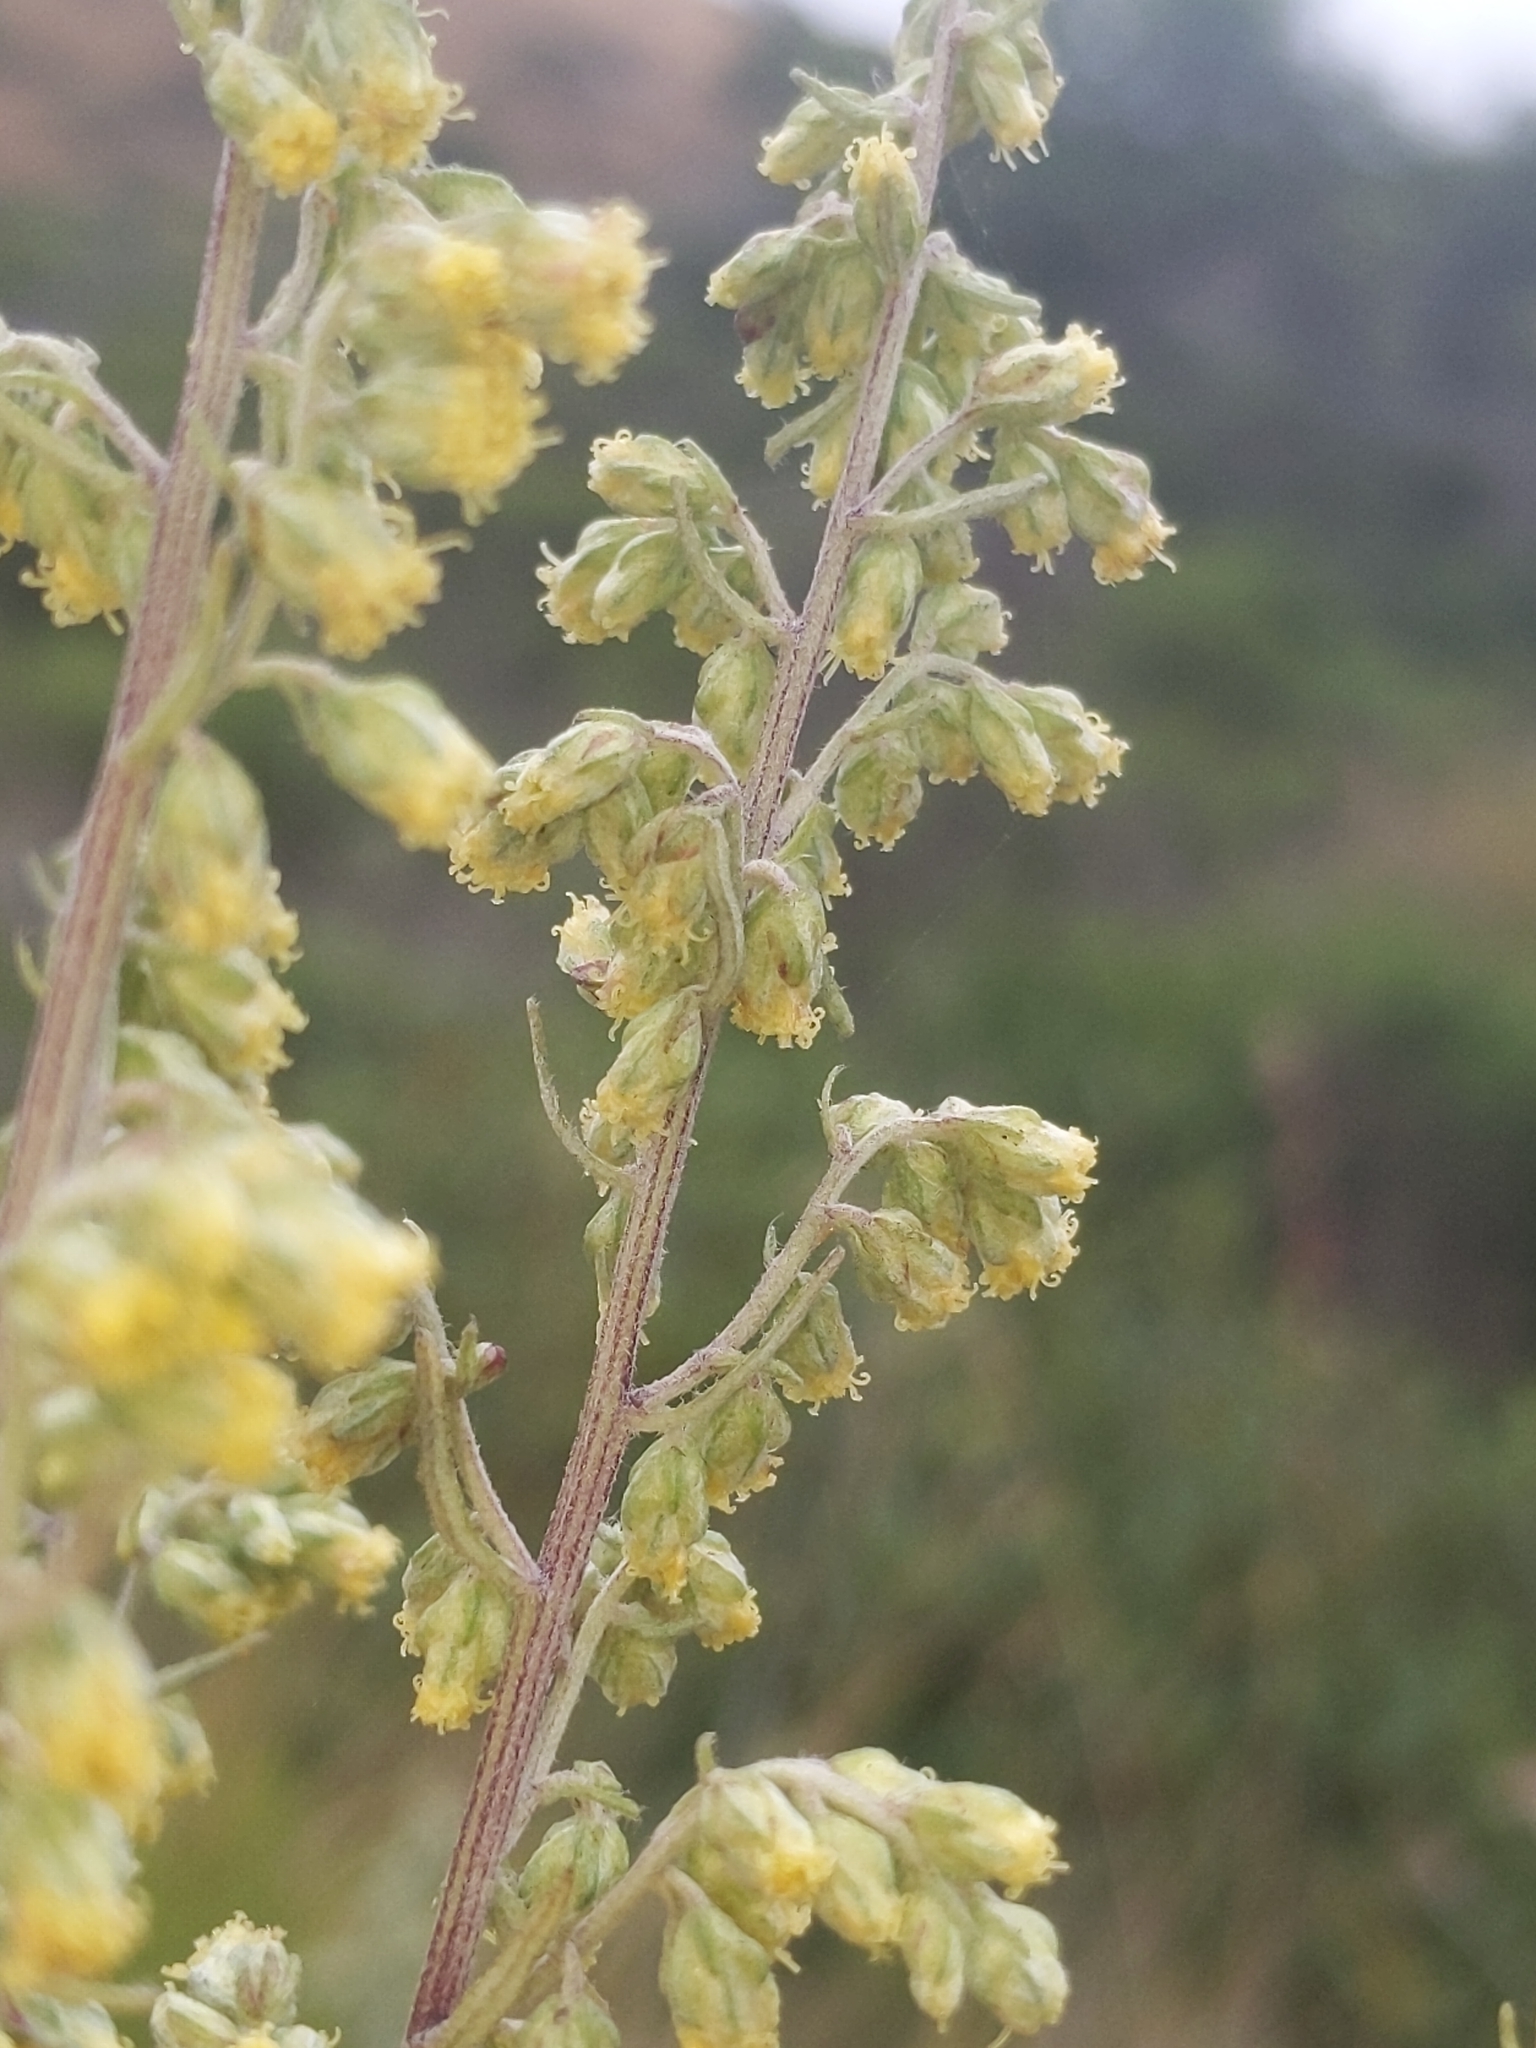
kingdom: Plantae
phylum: Tracheophyta
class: Magnoliopsida
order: Asterales
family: Asteraceae
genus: Artemisia
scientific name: Artemisia douglasiana
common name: Northwest mugwort
